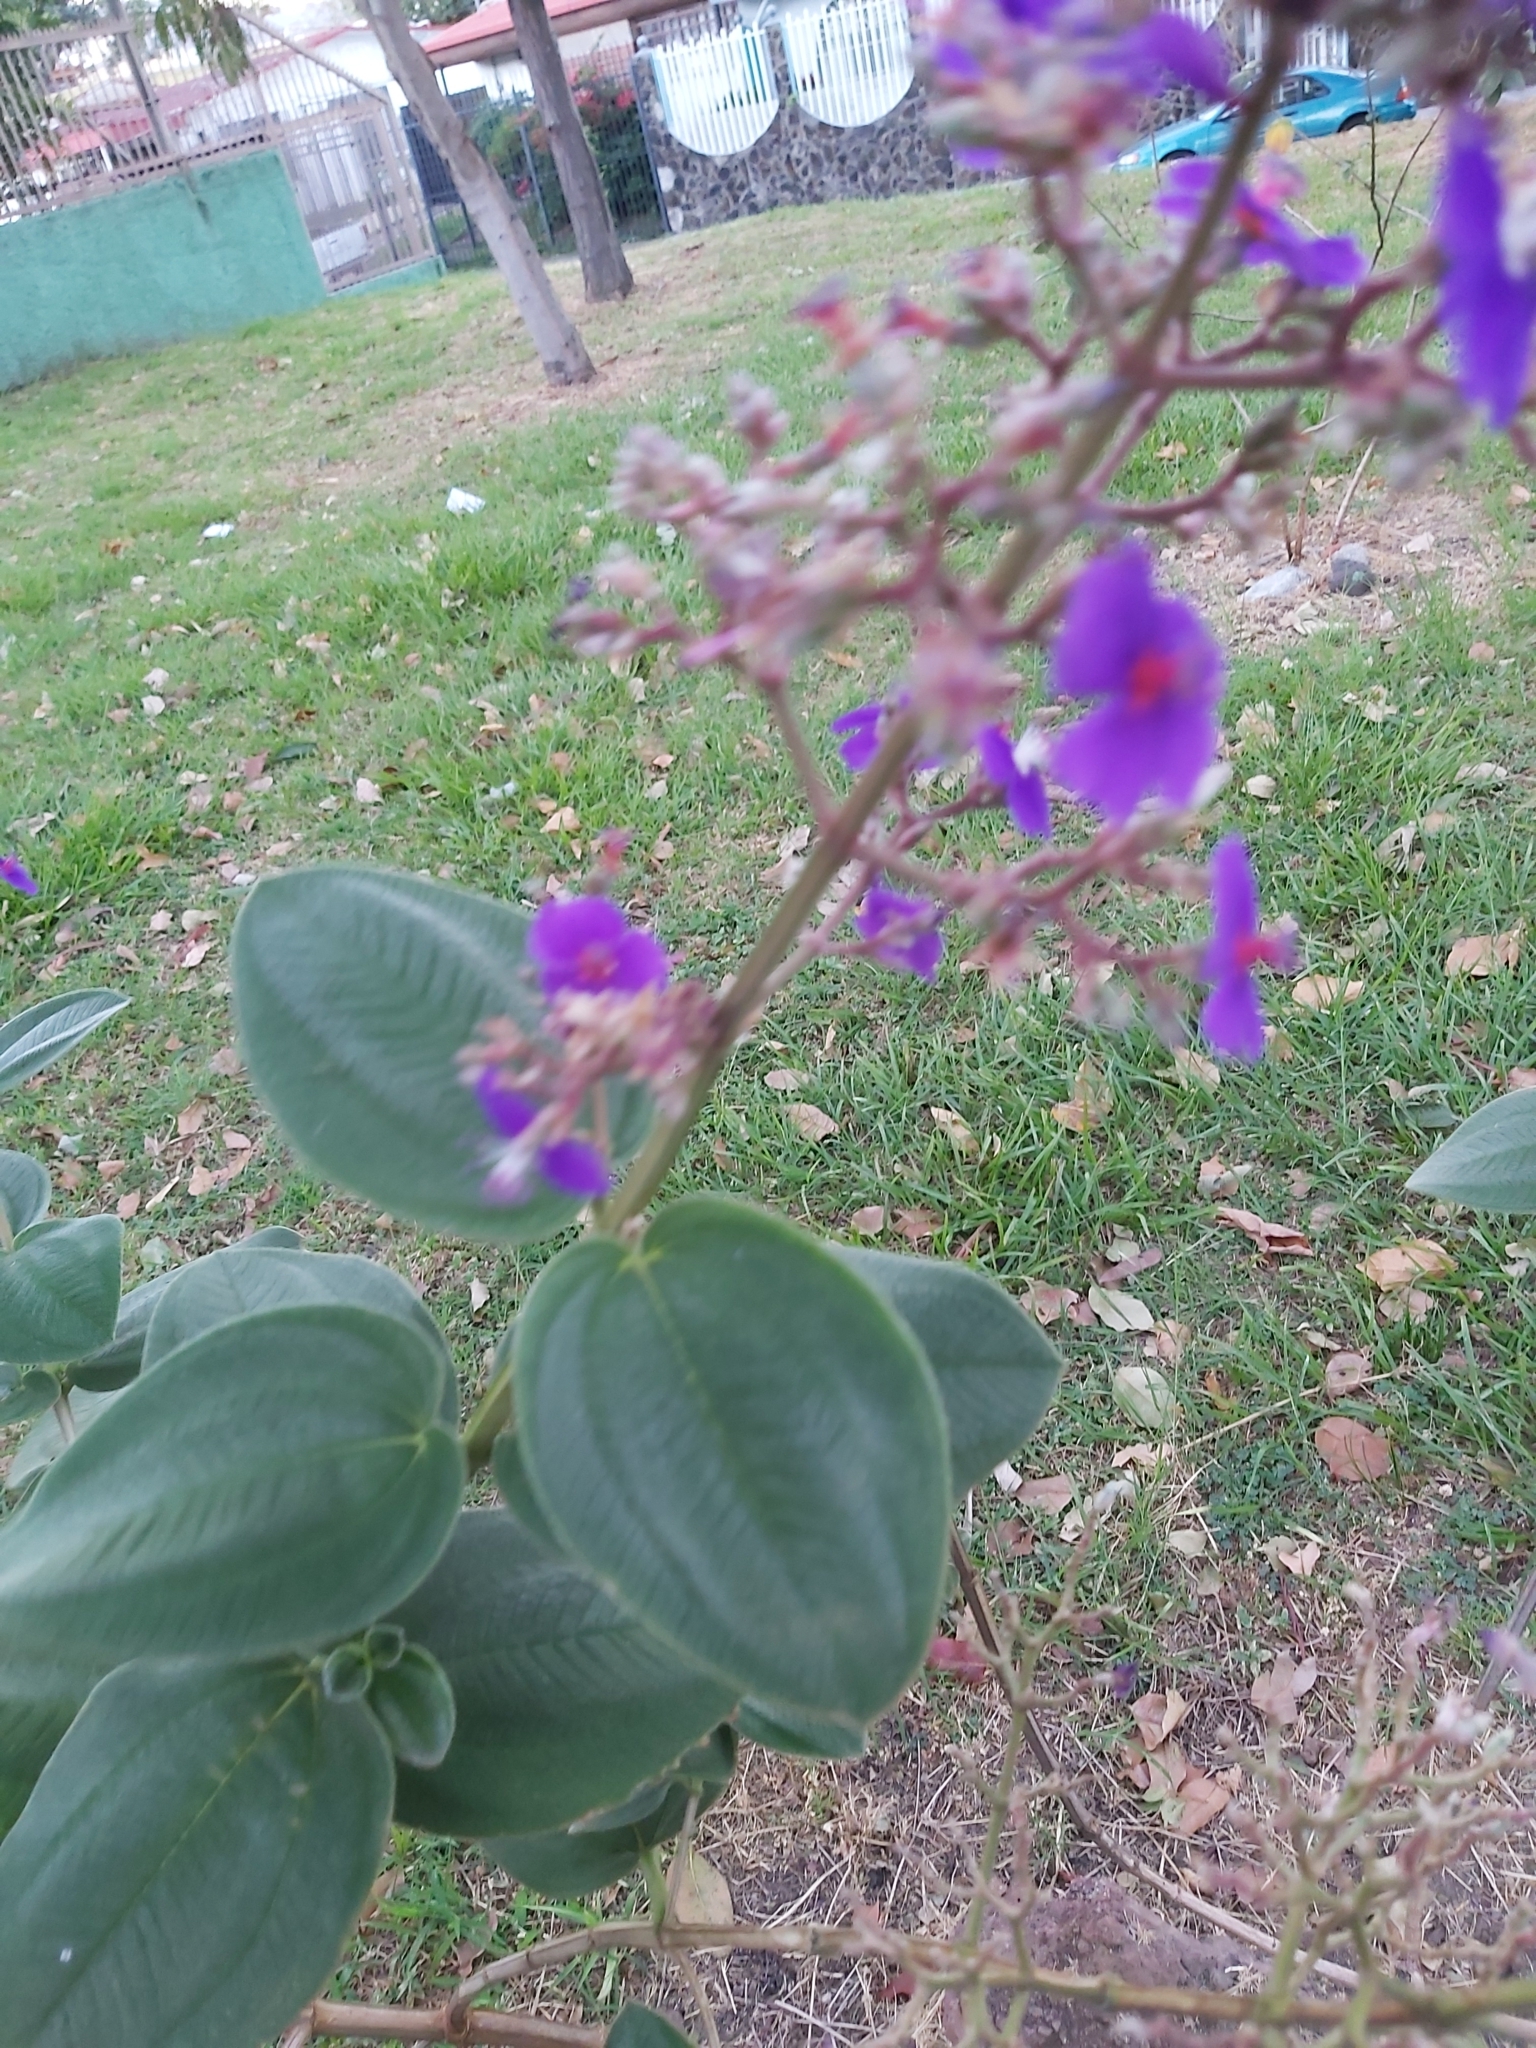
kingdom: Plantae
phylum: Tracheophyta
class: Magnoliopsida
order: Myrtales
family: Melastomataceae
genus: Pleroma
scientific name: Pleroma heteromallum
